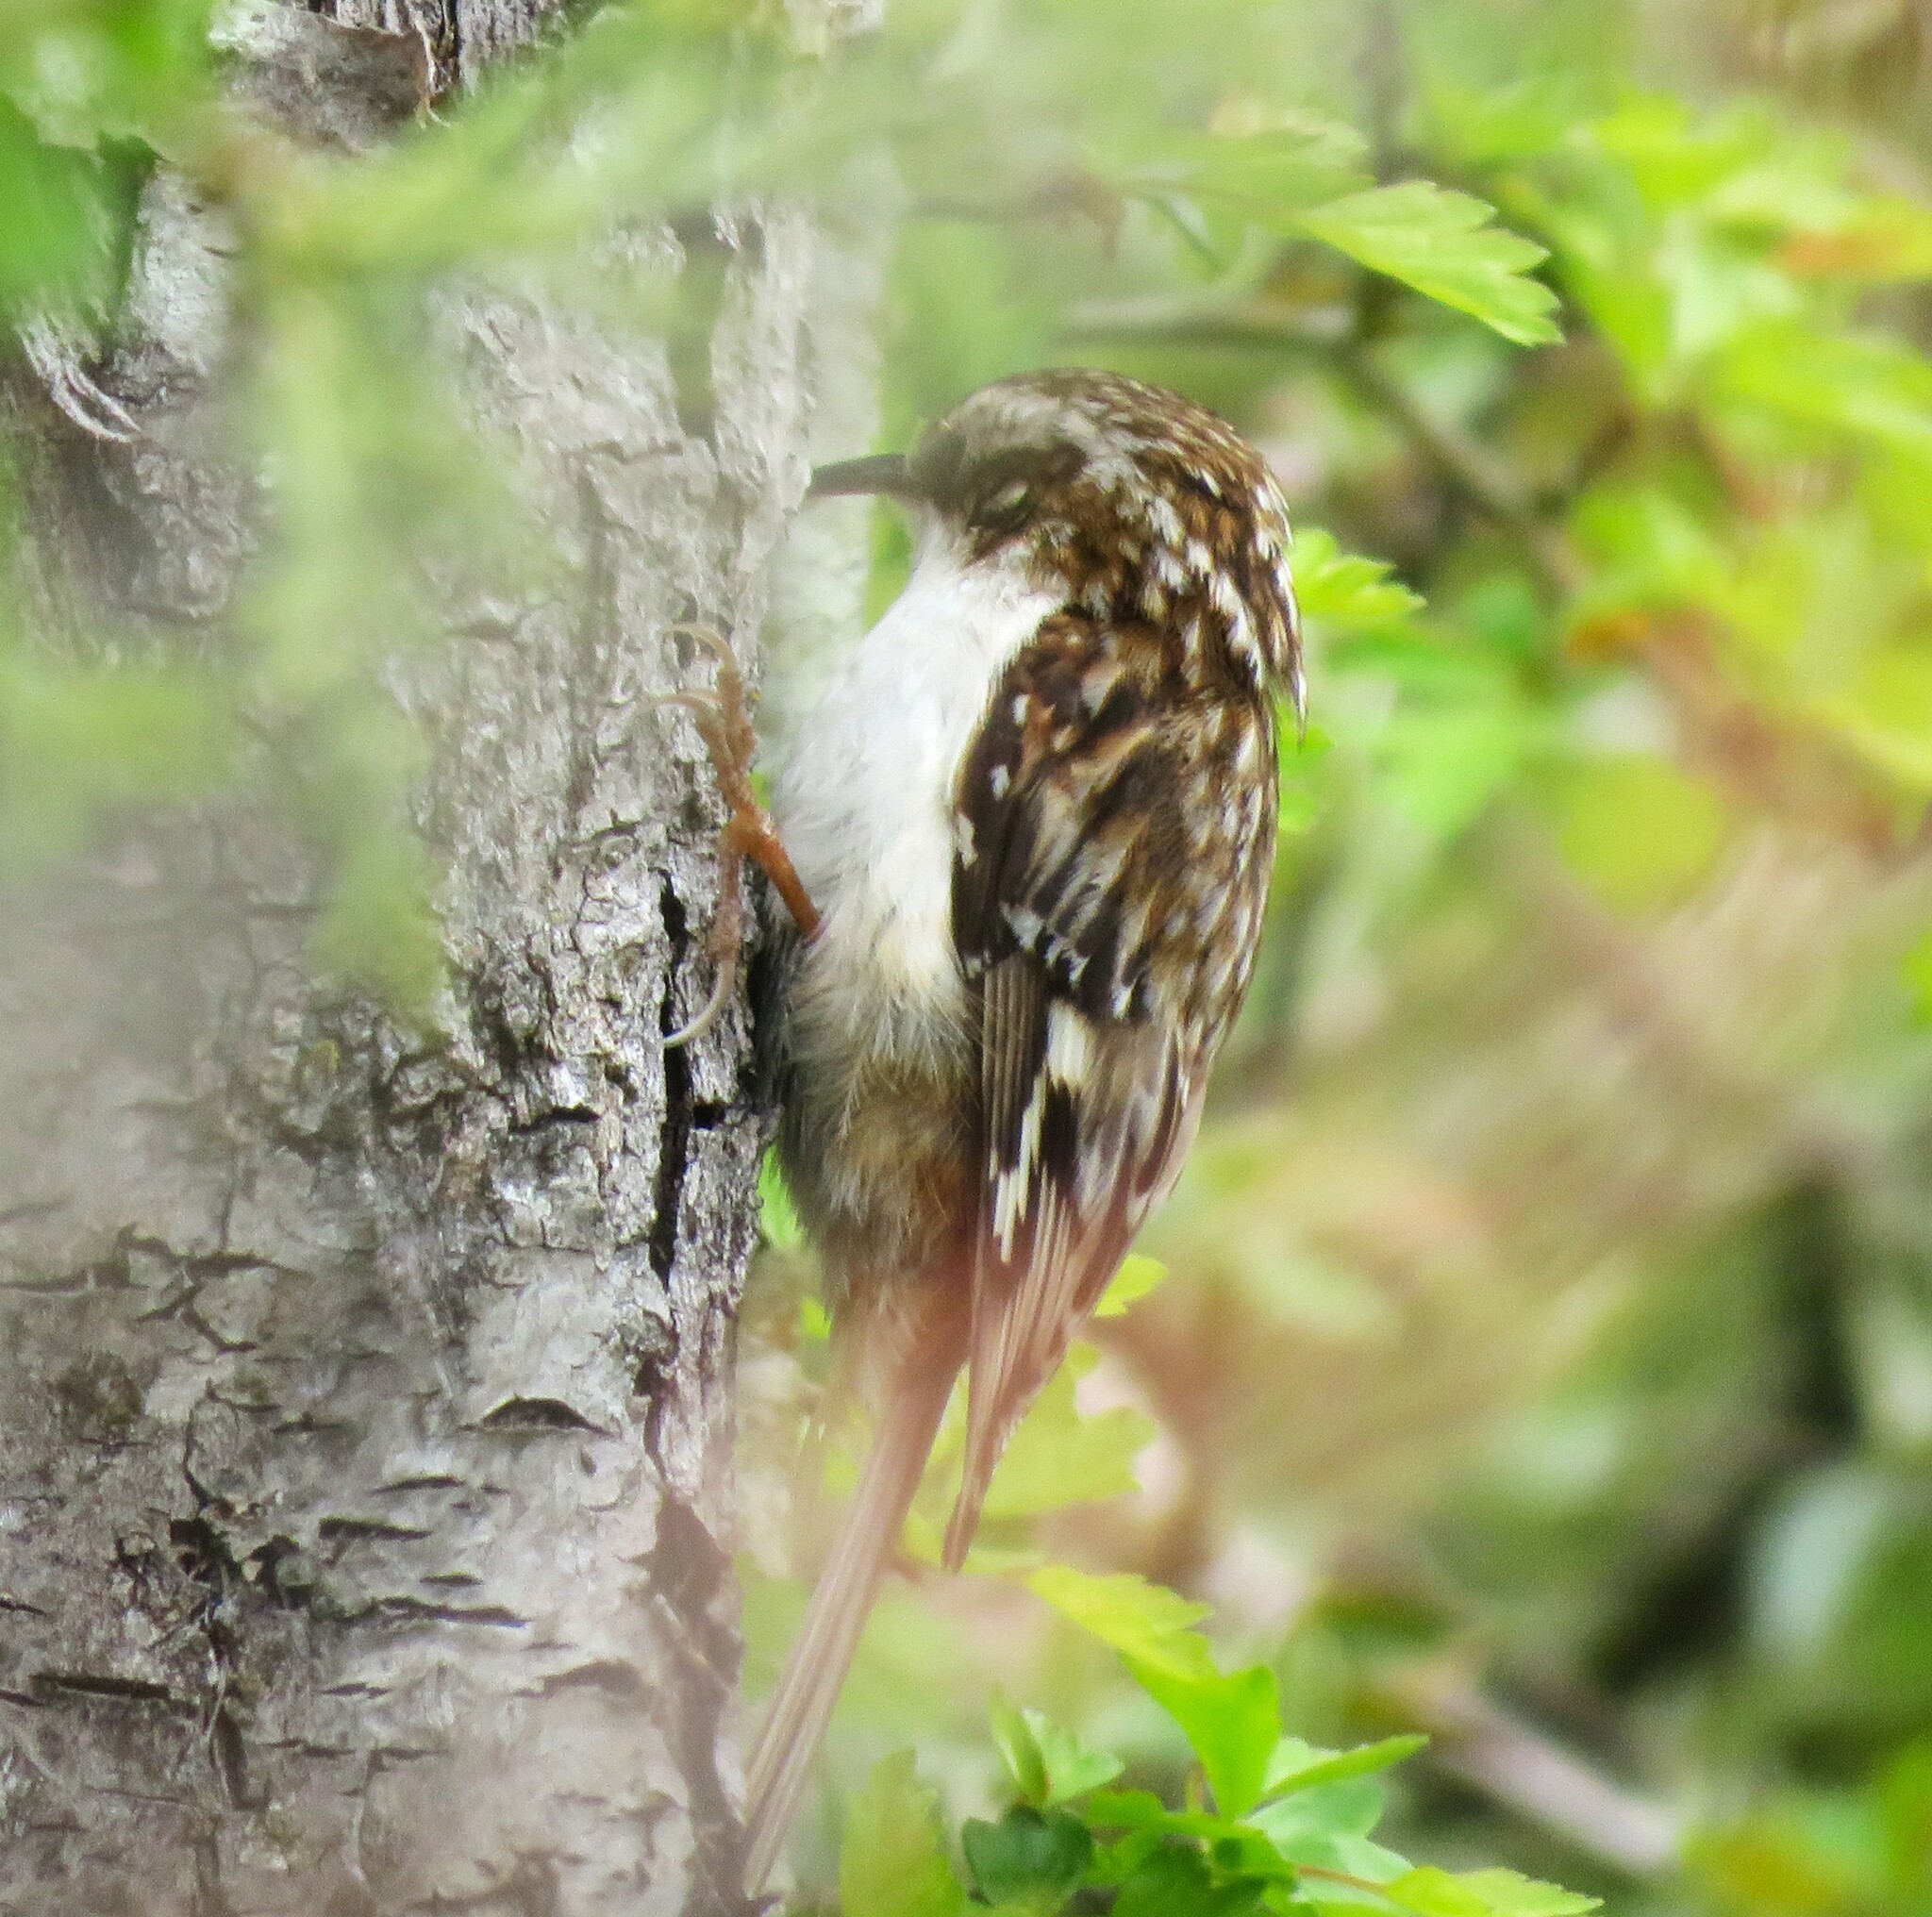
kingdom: Animalia
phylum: Chordata
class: Aves
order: Passeriformes
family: Certhiidae
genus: Certhia
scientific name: Certhia americana
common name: Brown creeper
